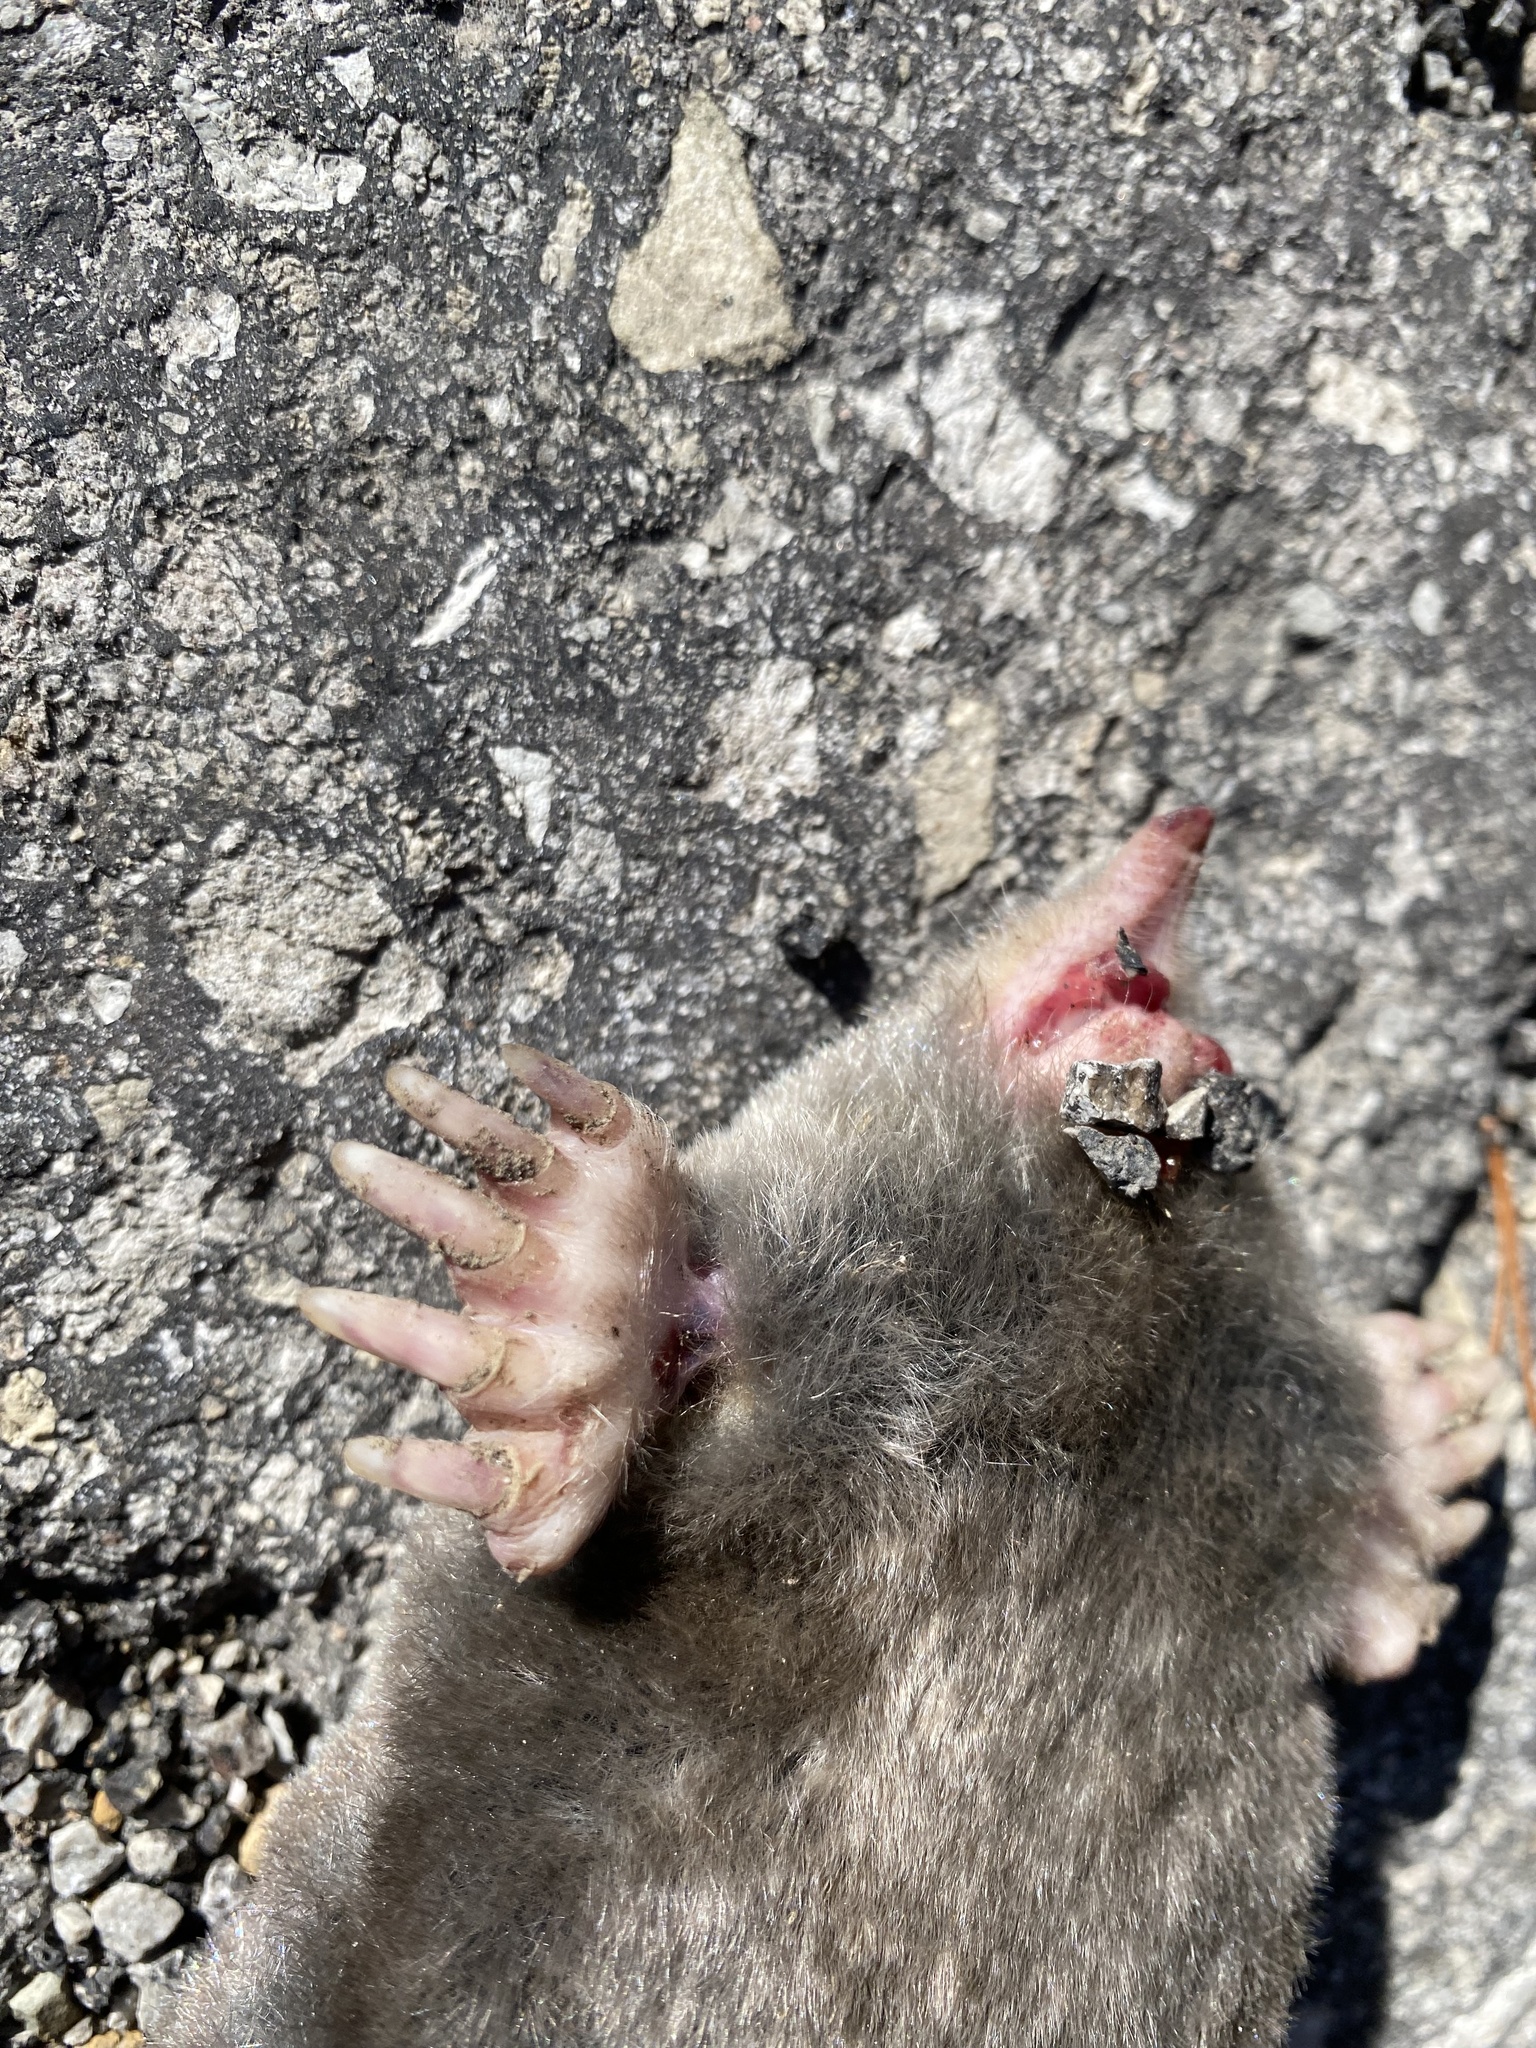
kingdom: Animalia
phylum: Chordata
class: Mammalia
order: Soricomorpha
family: Talpidae
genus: Scalopus
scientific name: Scalopus aquaticus
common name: Eastern mole
